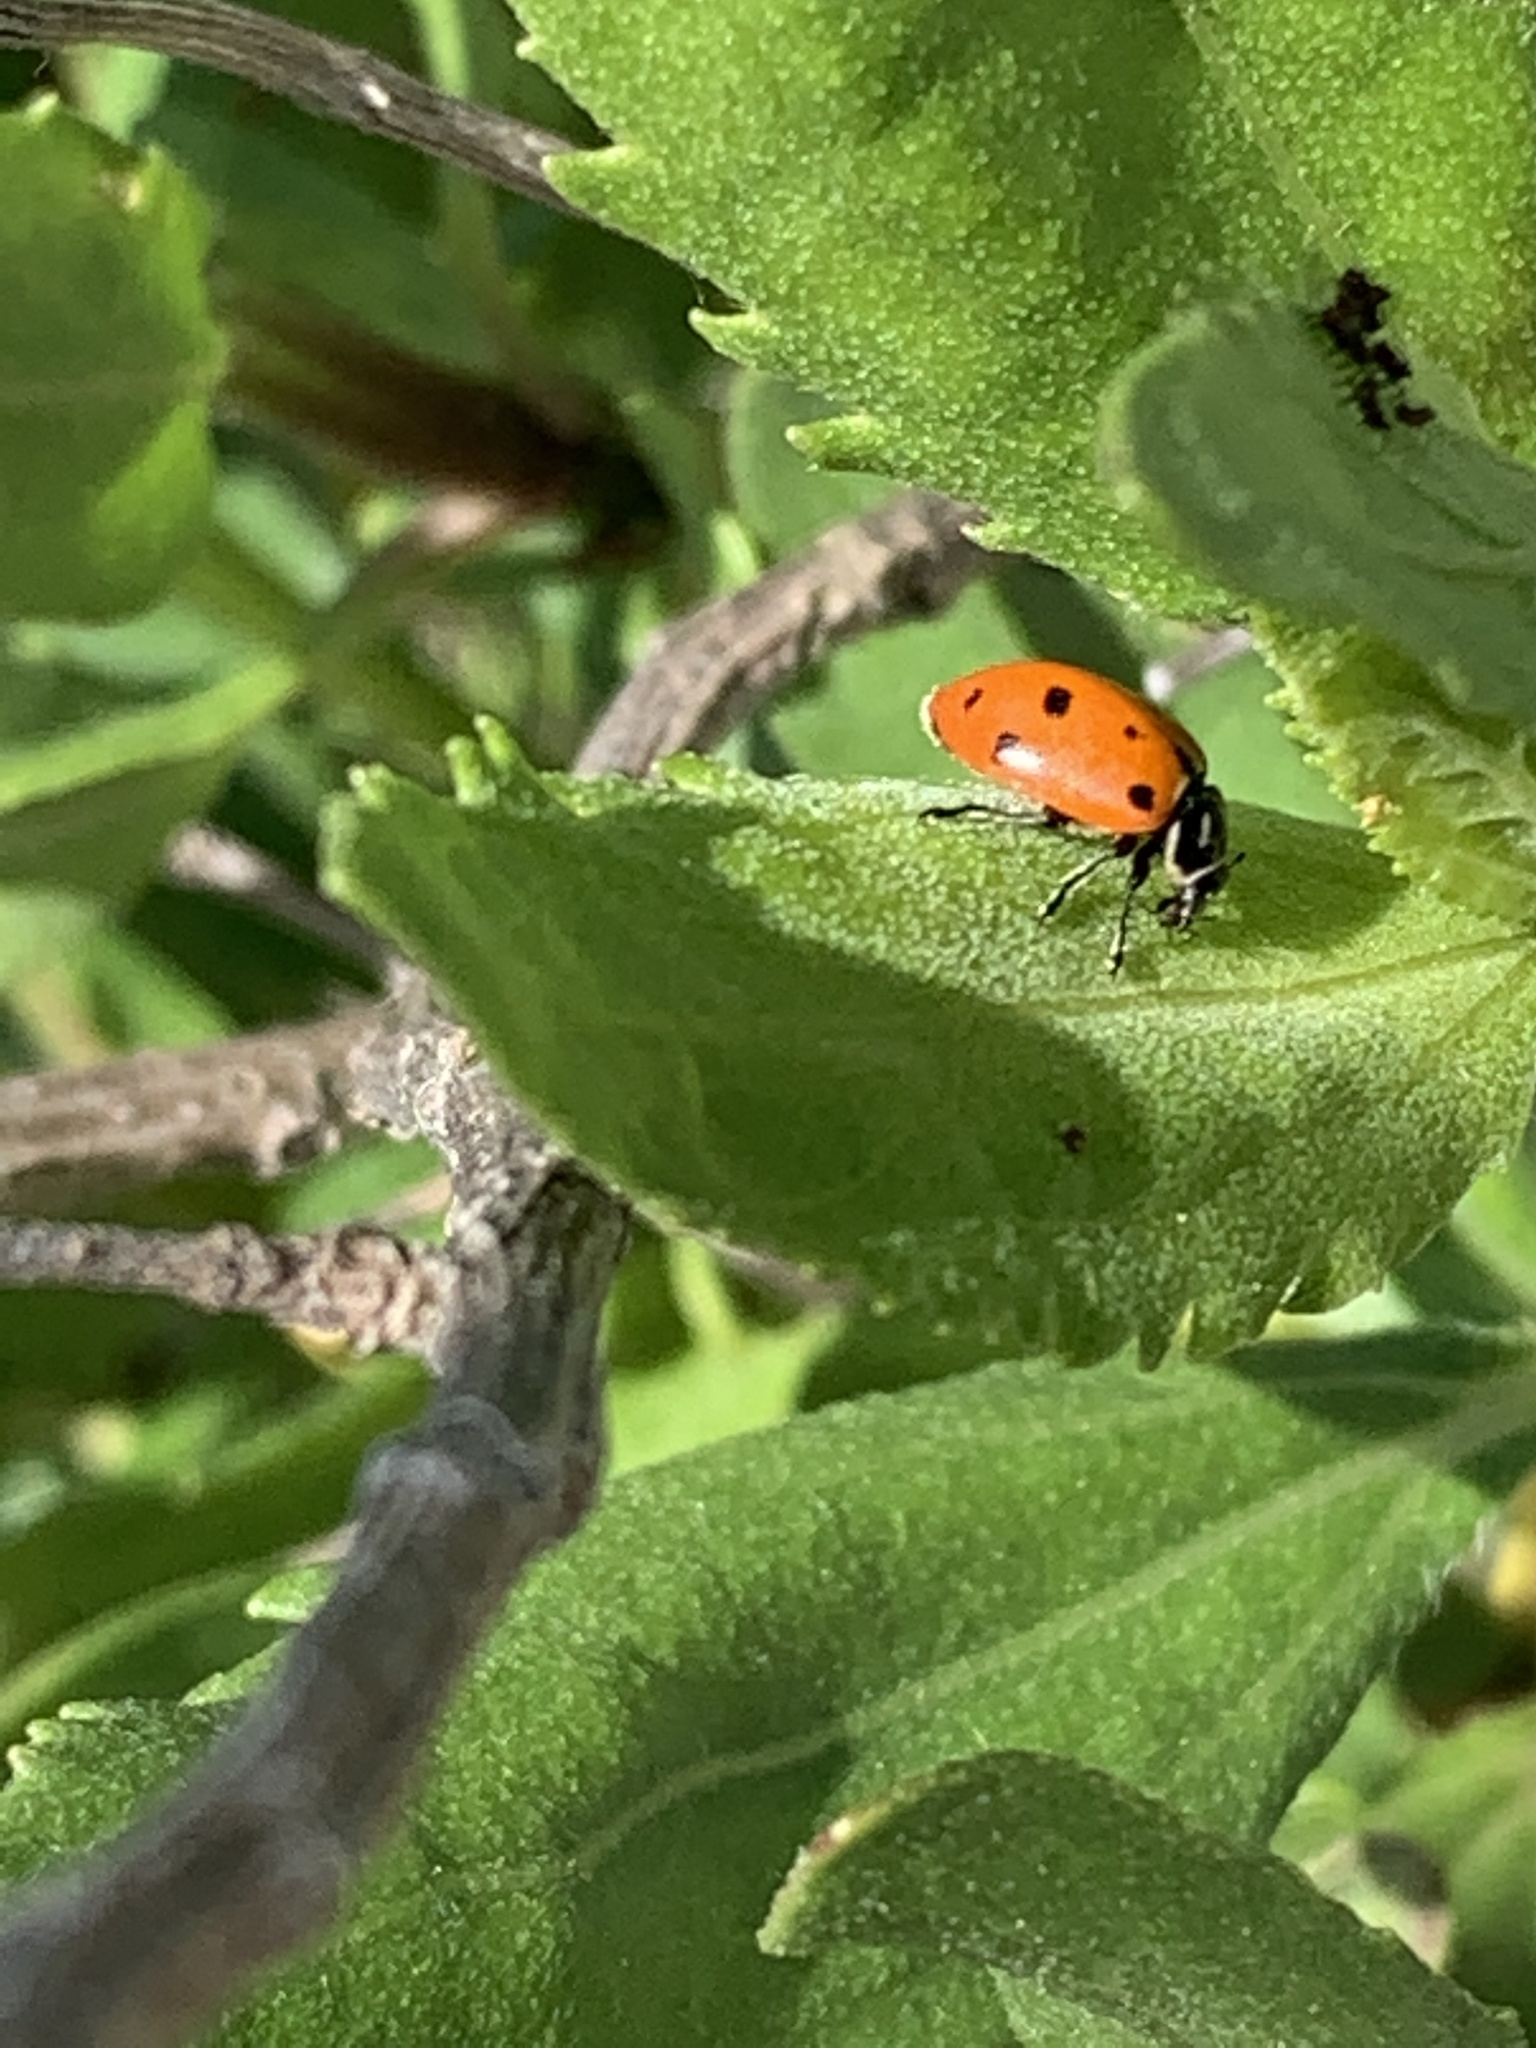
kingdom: Animalia
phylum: Arthropoda
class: Insecta
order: Coleoptera
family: Coccinellidae
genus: Hippodamia
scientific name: Hippodamia convergens
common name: Convergent lady beetle
